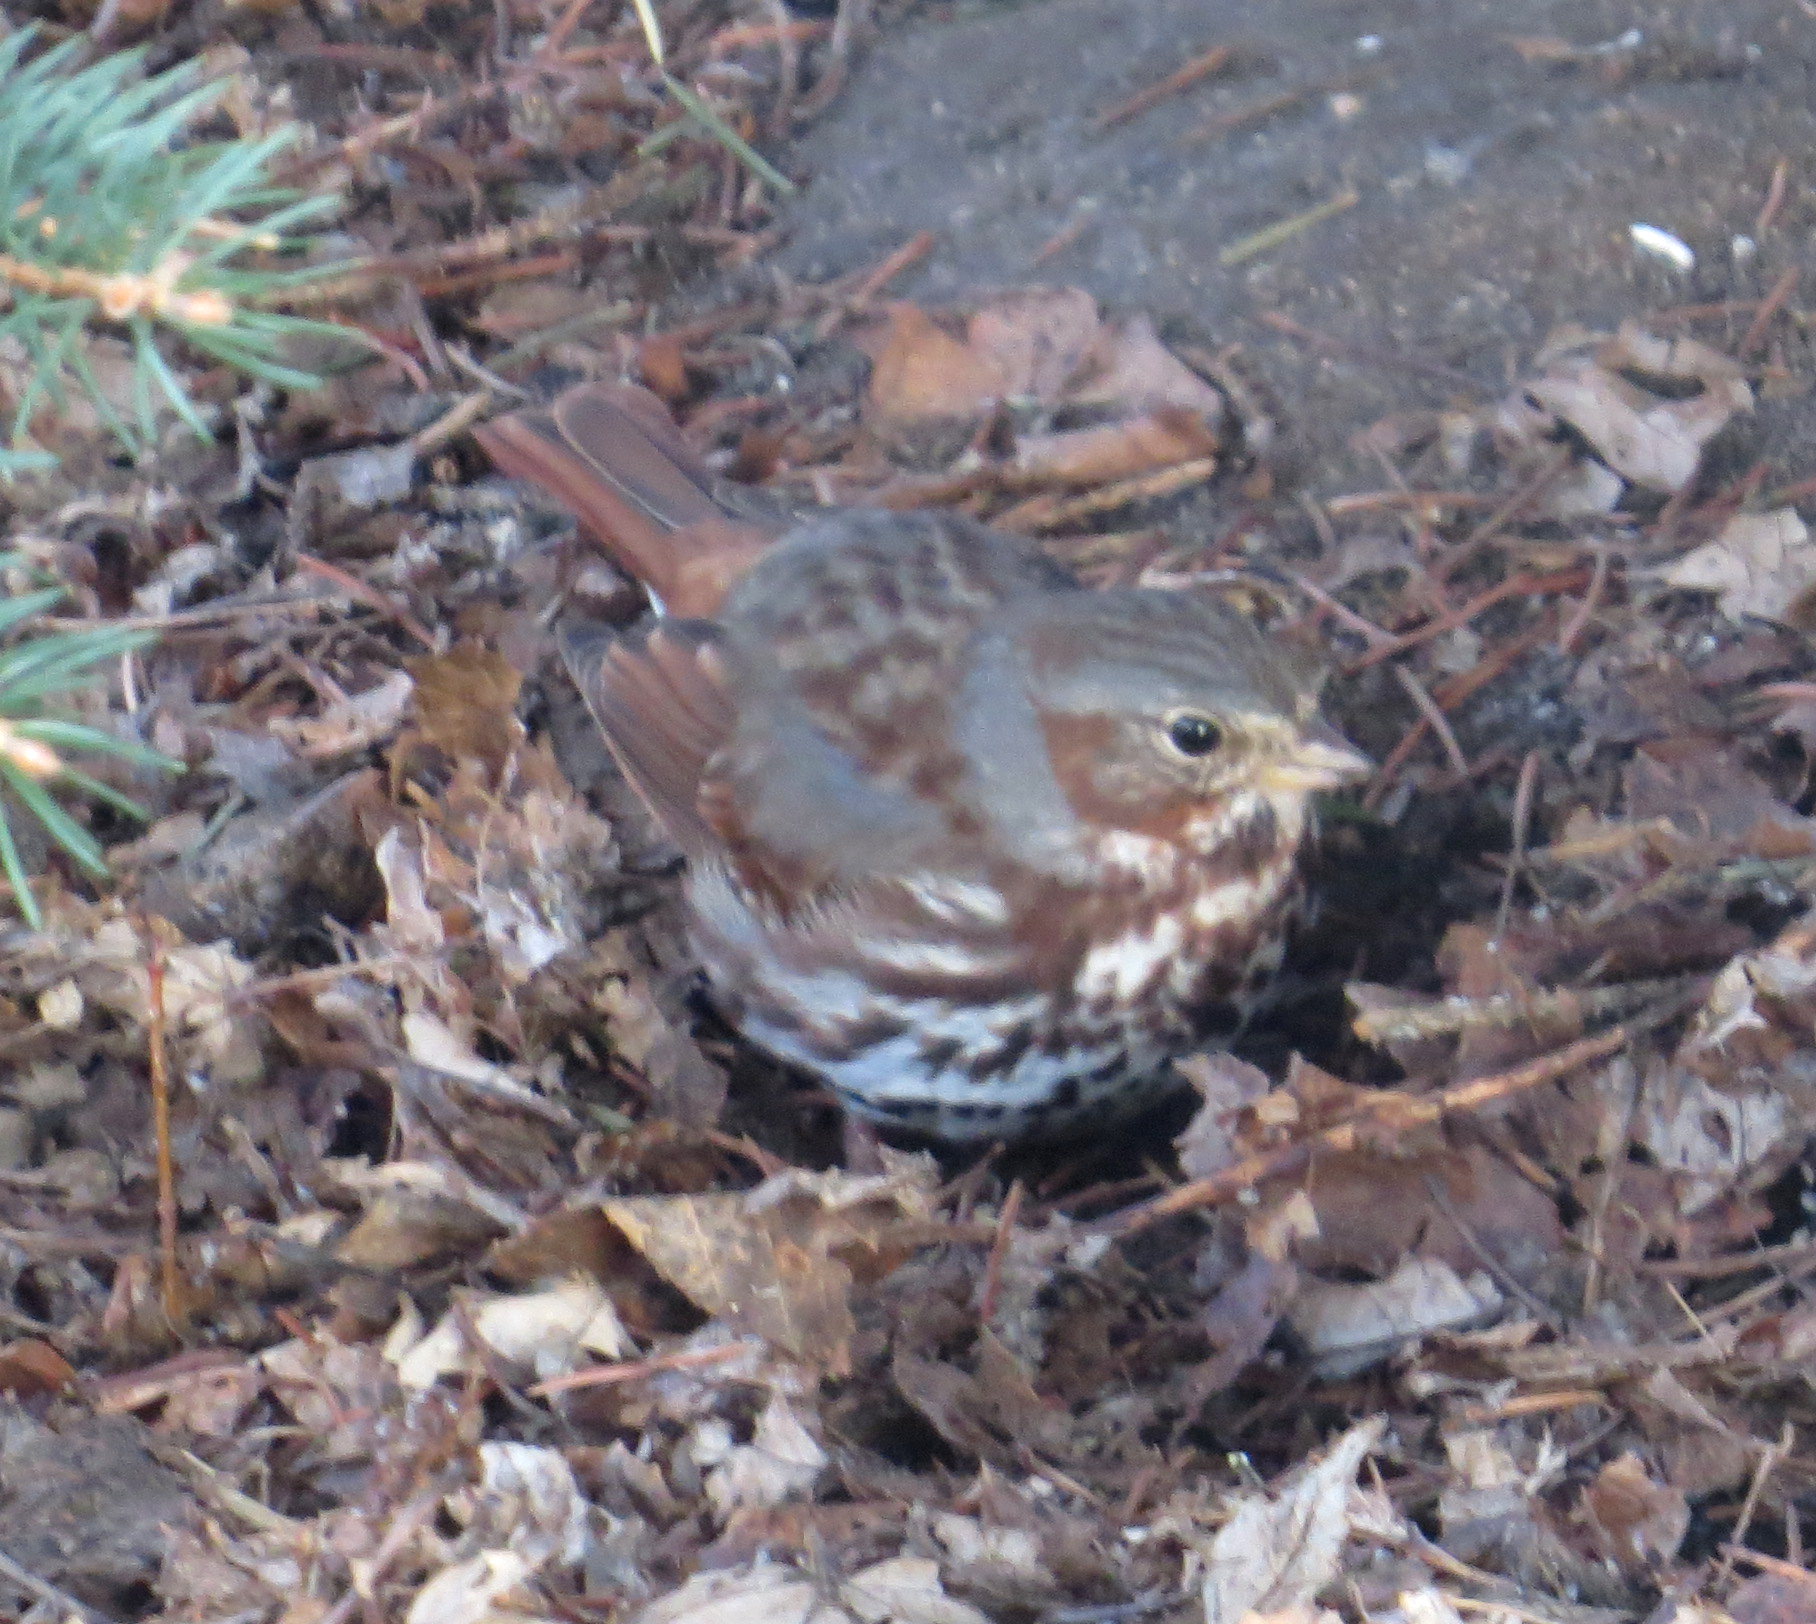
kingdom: Animalia
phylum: Chordata
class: Aves
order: Passeriformes
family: Passerellidae
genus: Passerella
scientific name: Passerella iliaca
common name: Fox sparrow
